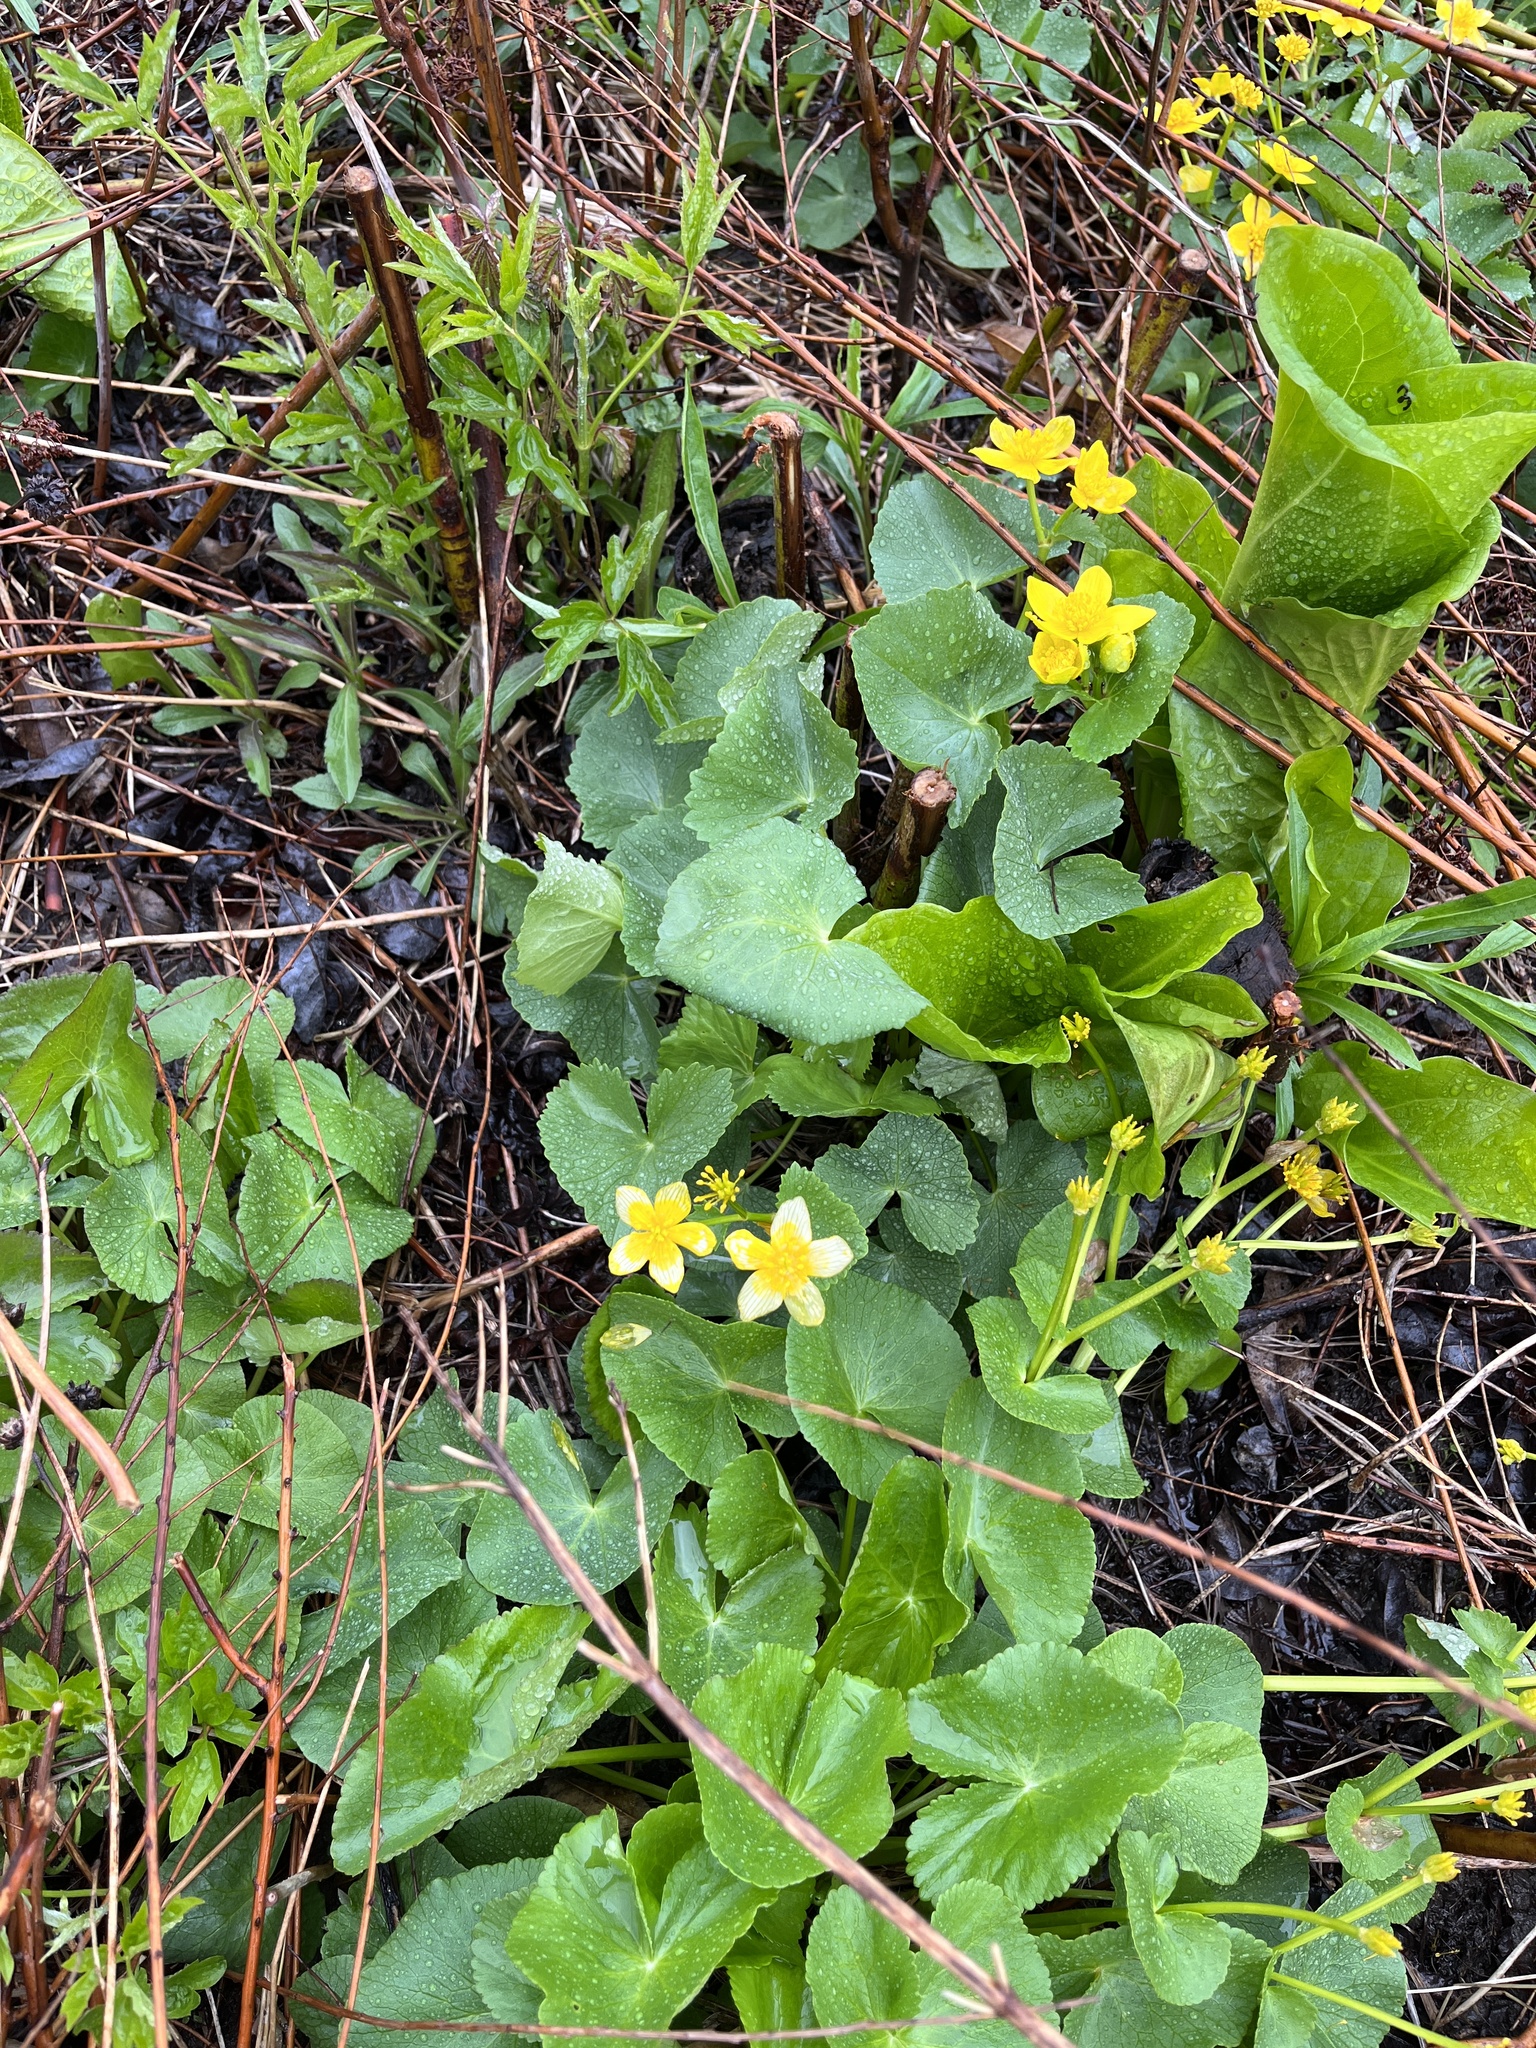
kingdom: Plantae
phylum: Tracheophyta
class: Magnoliopsida
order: Ranunculales
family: Ranunculaceae
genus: Caltha
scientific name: Caltha palustris
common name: Marsh marigold
